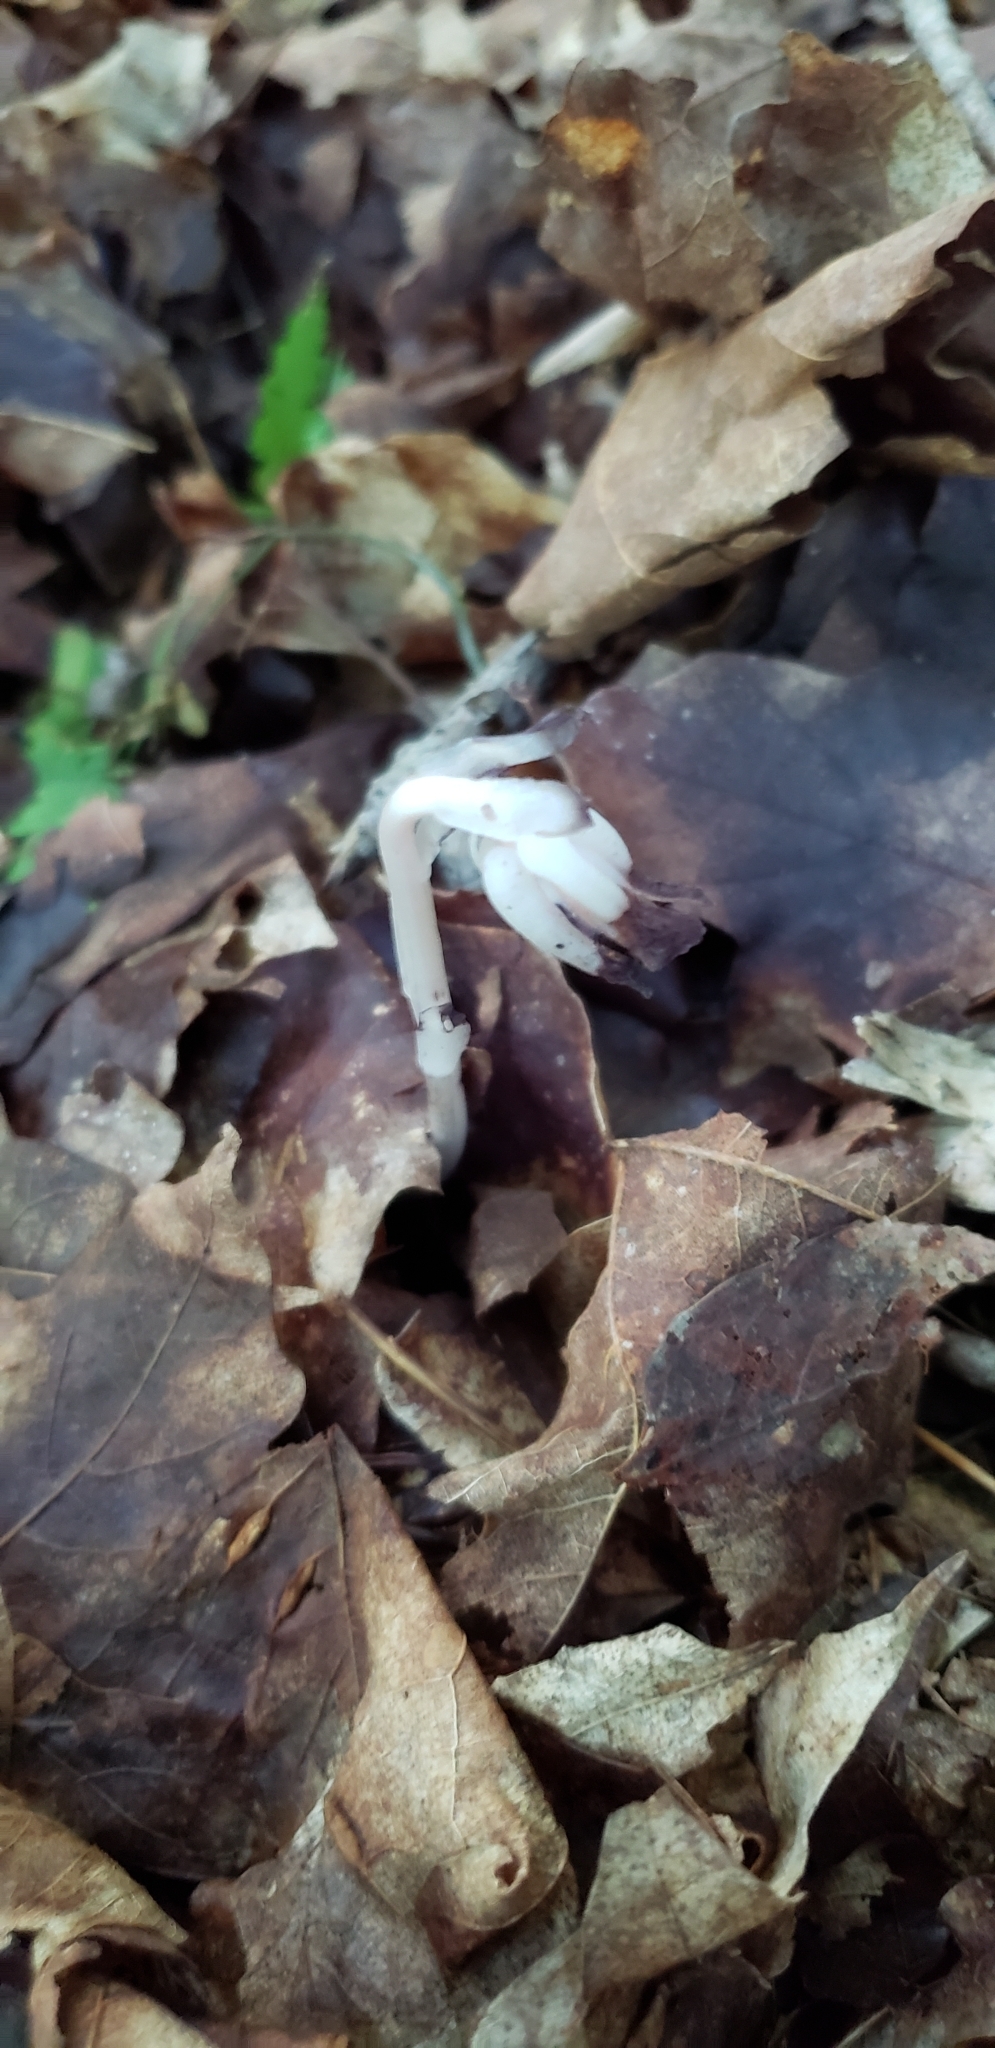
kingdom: Plantae
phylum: Tracheophyta
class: Magnoliopsida
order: Ericales
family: Ericaceae
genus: Monotropa
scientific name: Monotropa uniflora
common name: Convulsion root
